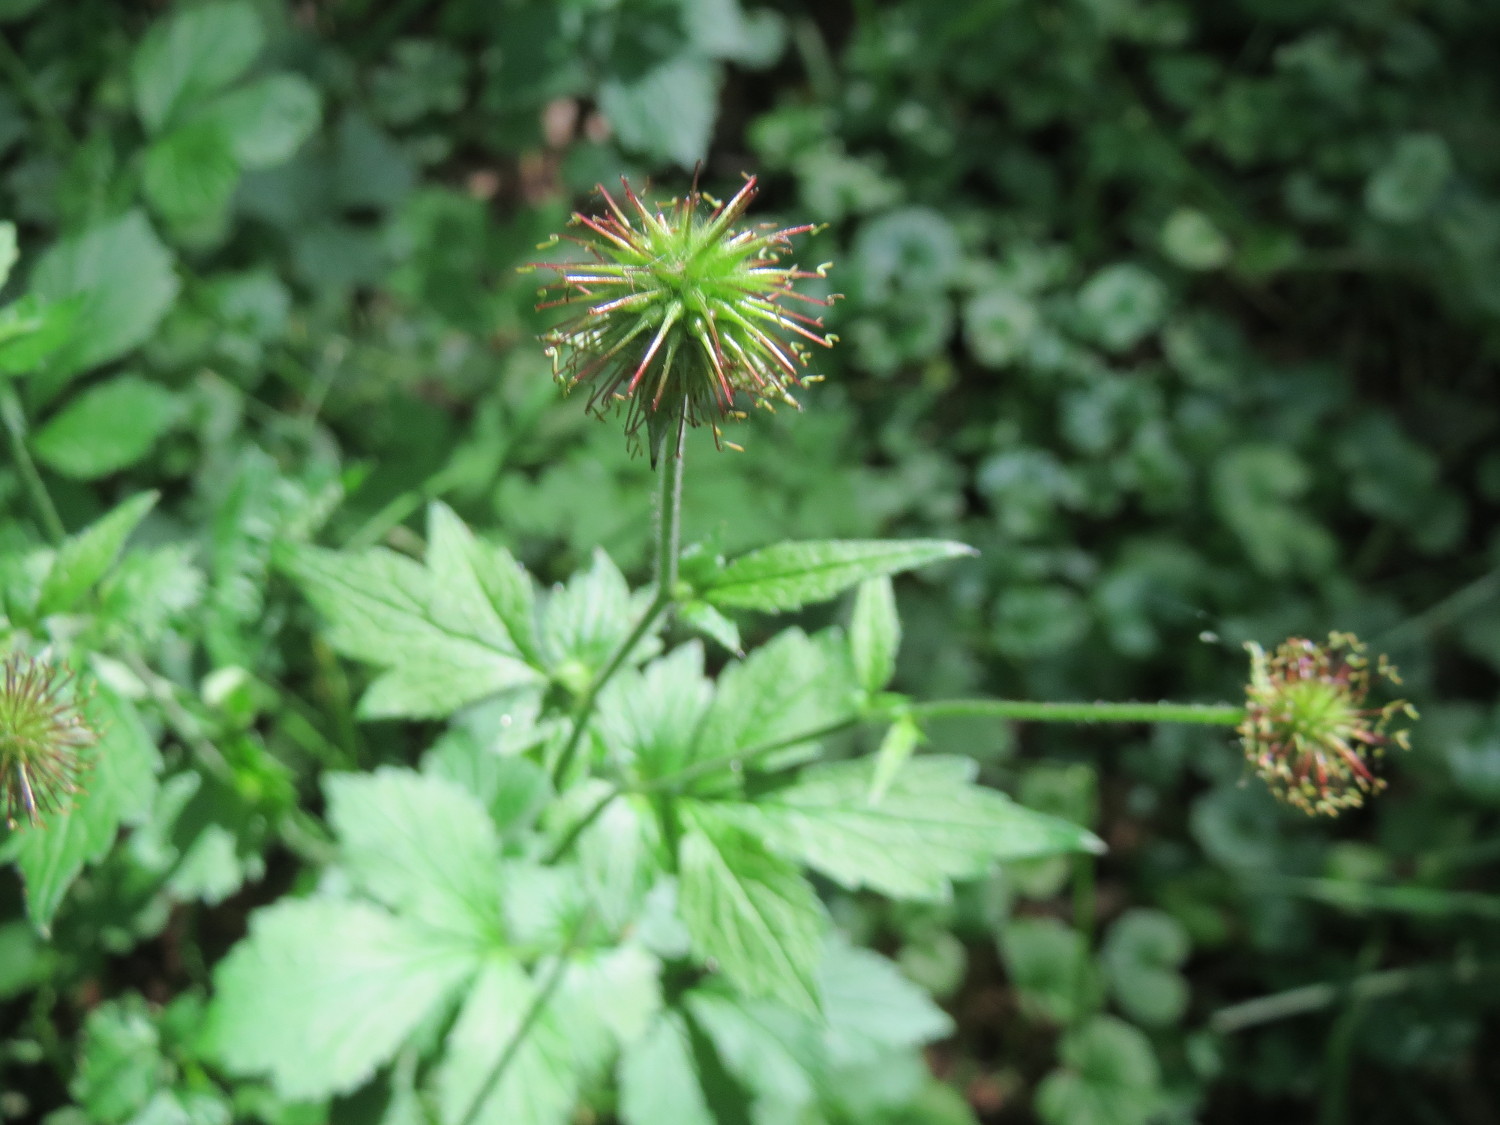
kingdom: Plantae
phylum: Tracheophyta
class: Magnoliopsida
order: Rosales
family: Rosaceae
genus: Geum
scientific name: Geum urbanum
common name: Wood avens
